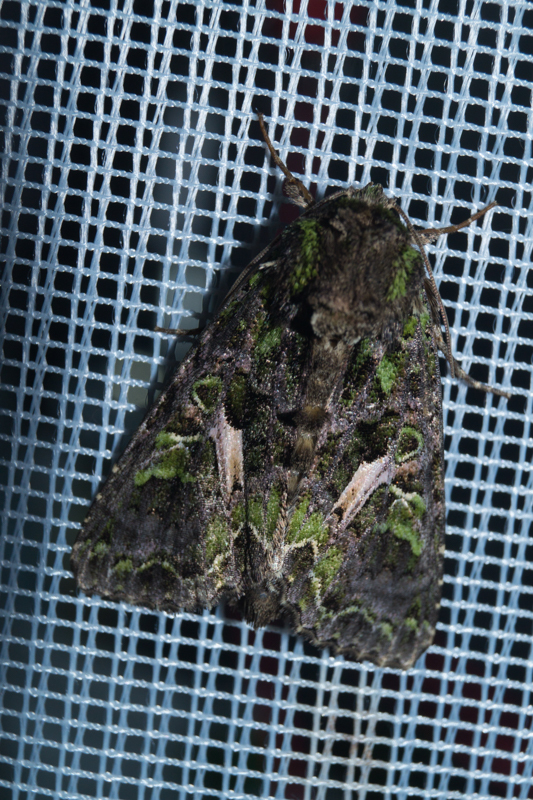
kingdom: Animalia
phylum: Arthropoda
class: Insecta
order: Lepidoptera
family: Noctuidae
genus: Trachea
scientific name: Trachea atriplicis
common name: Orache moth
